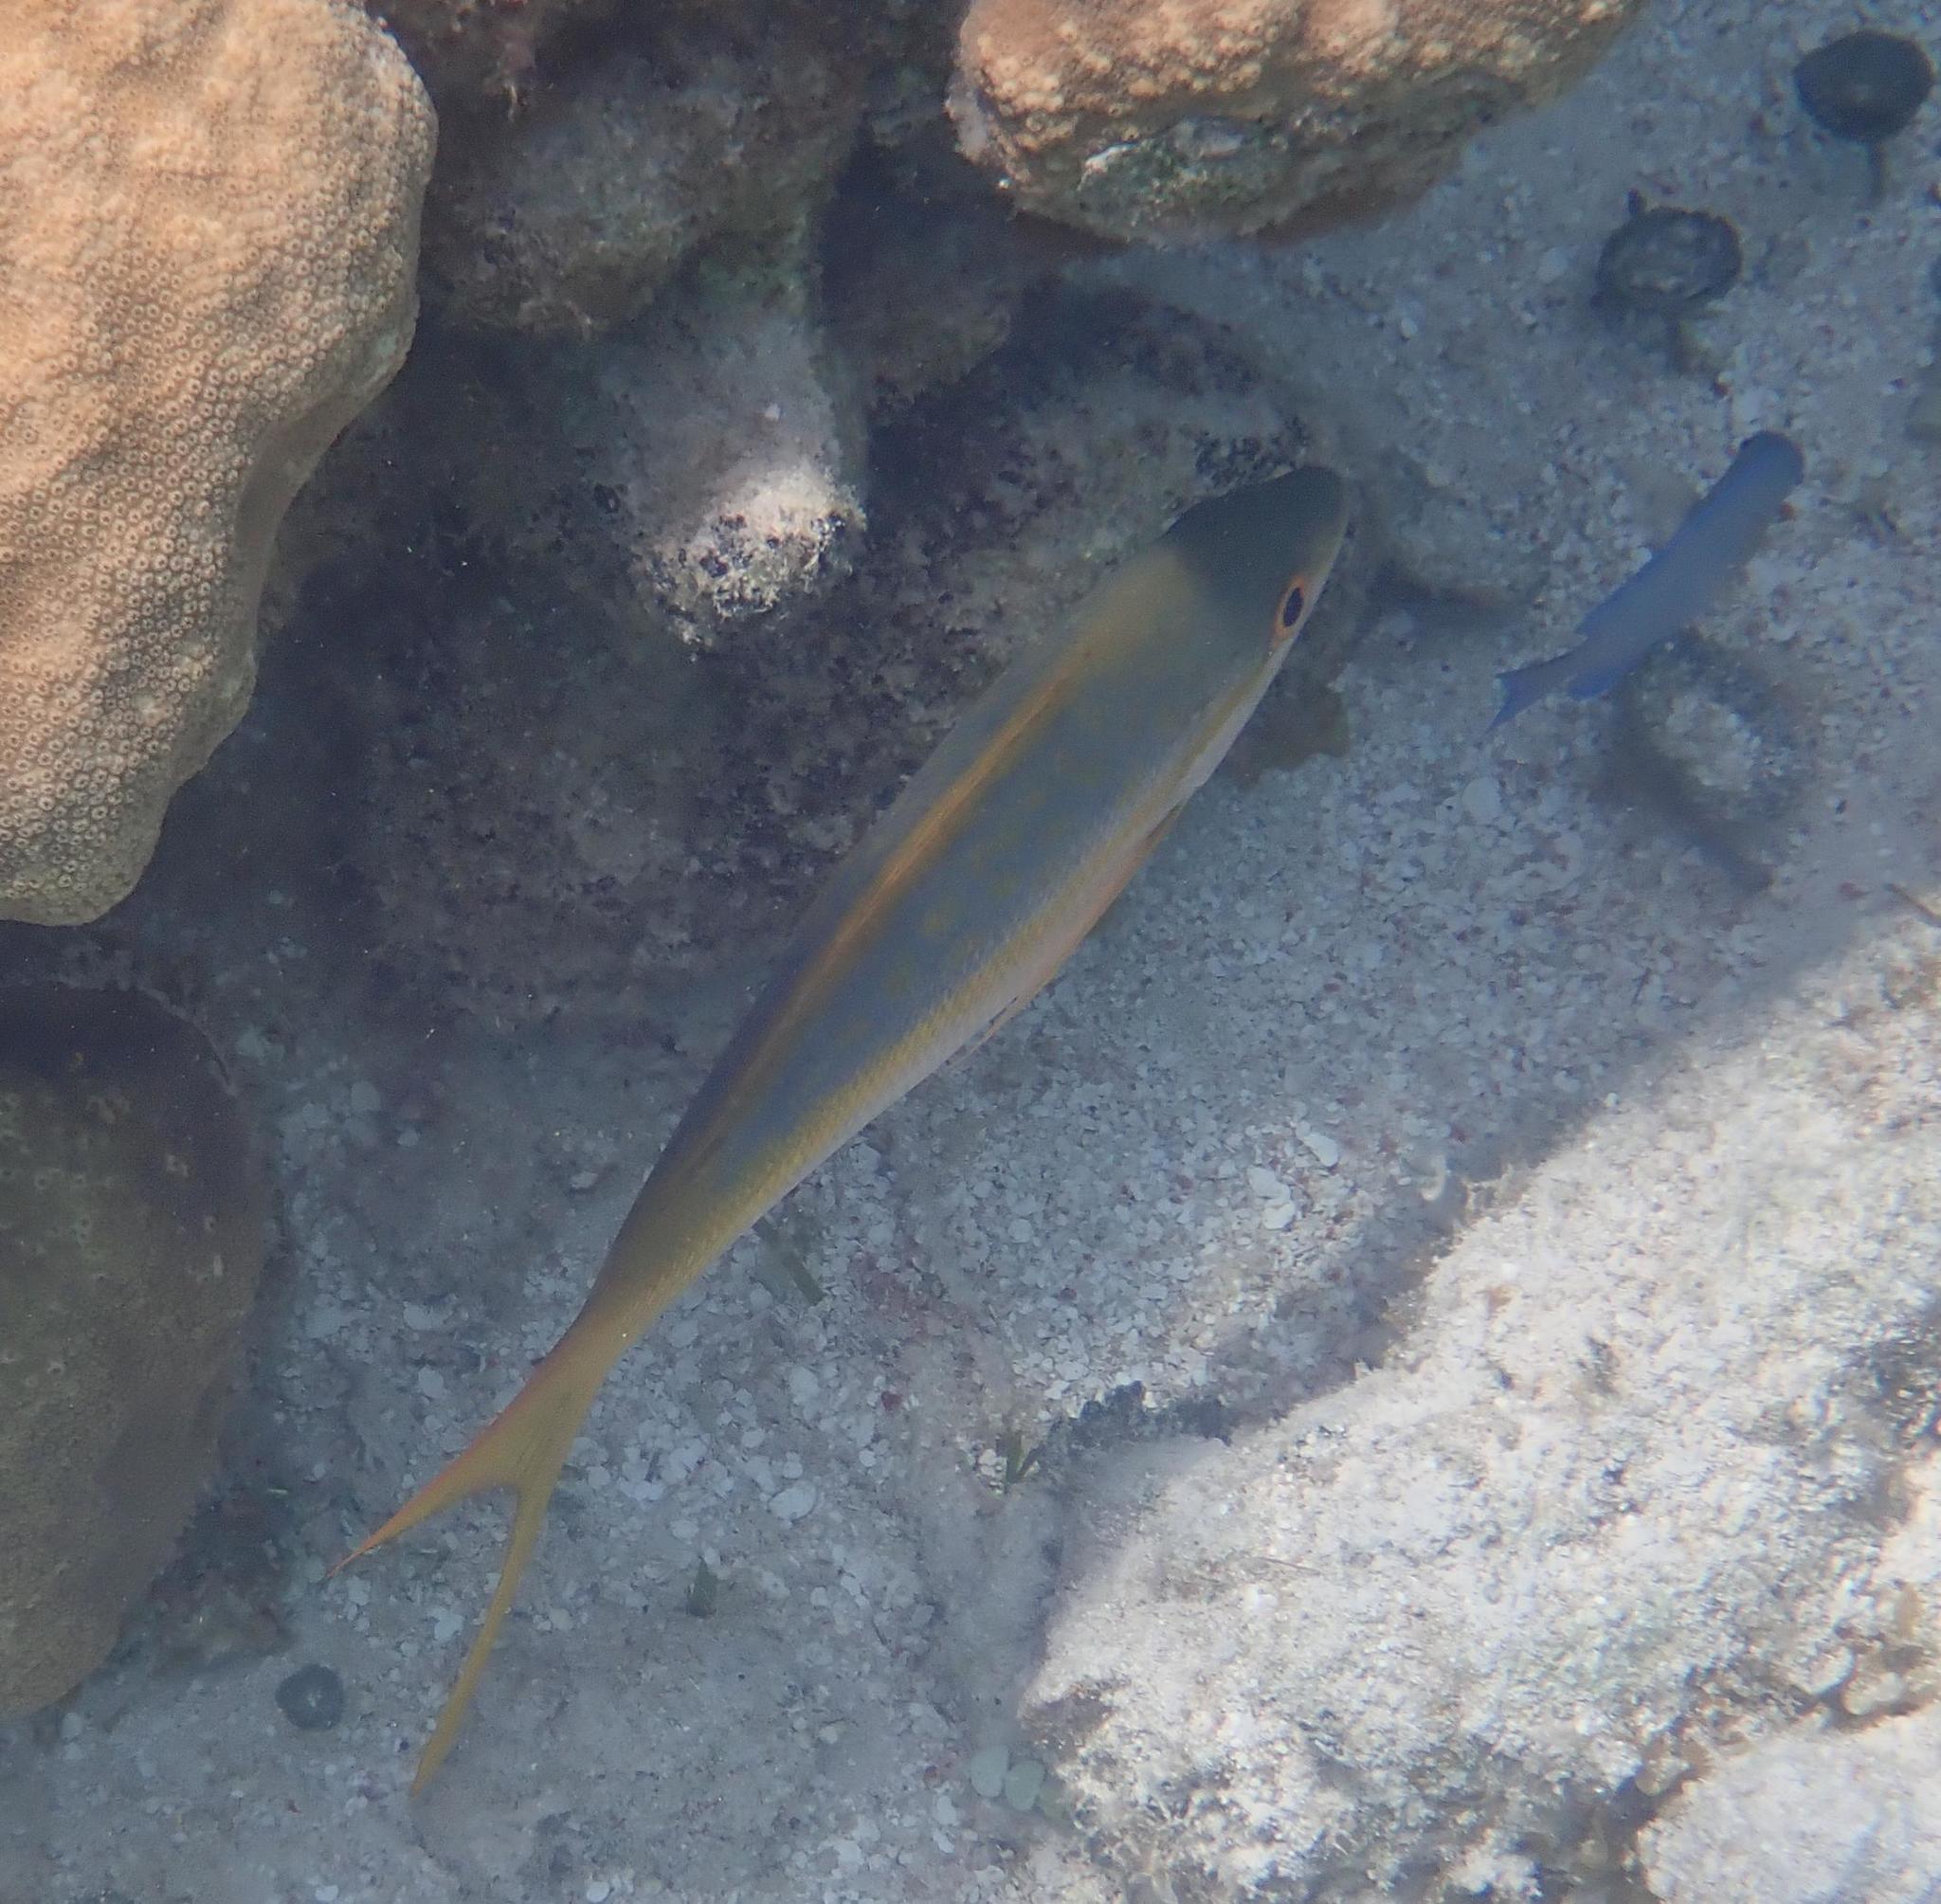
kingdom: Animalia
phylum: Chordata
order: Perciformes
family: Lutjanidae
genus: Ocyurus
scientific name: Ocyurus chrysurus
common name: Yellowtail snapper
